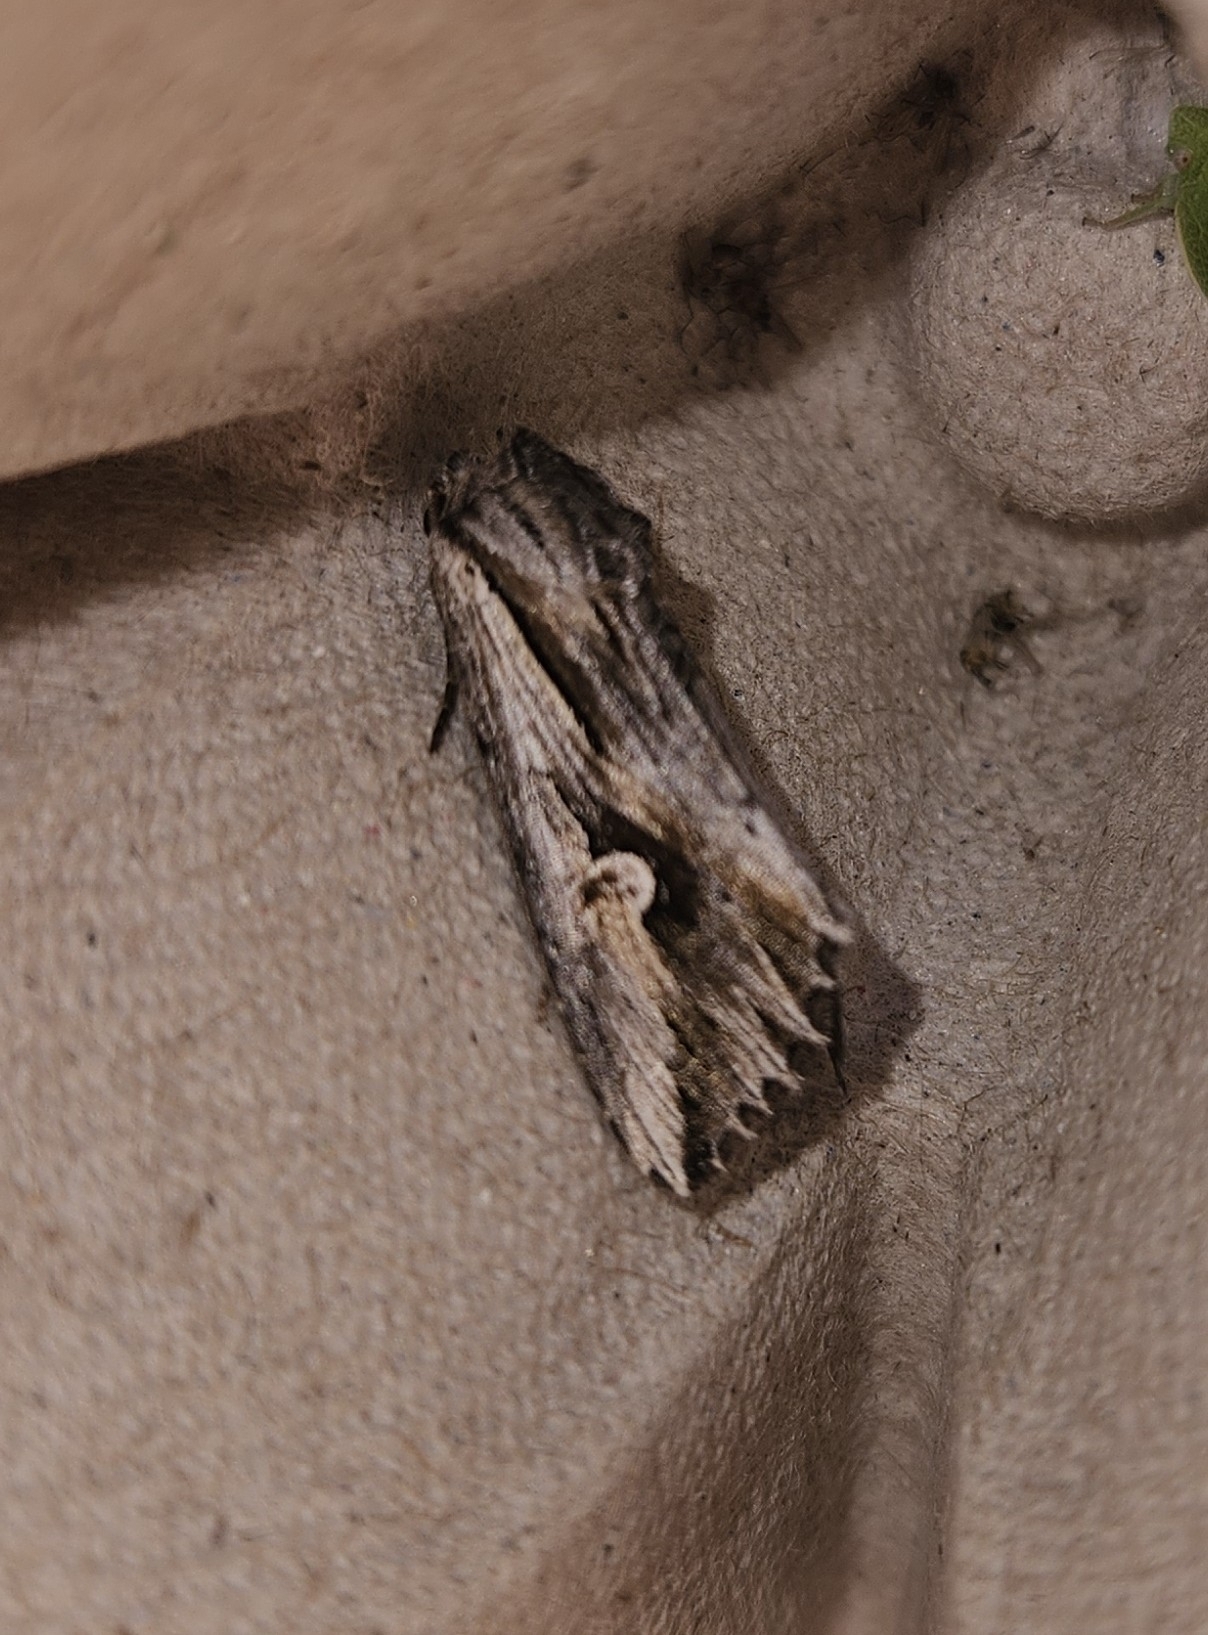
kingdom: Animalia
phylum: Arthropoda
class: Insecta
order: Lepidoptera
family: Noctuidae
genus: Nedra
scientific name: Nedra ramosula
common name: Gray half-spot
